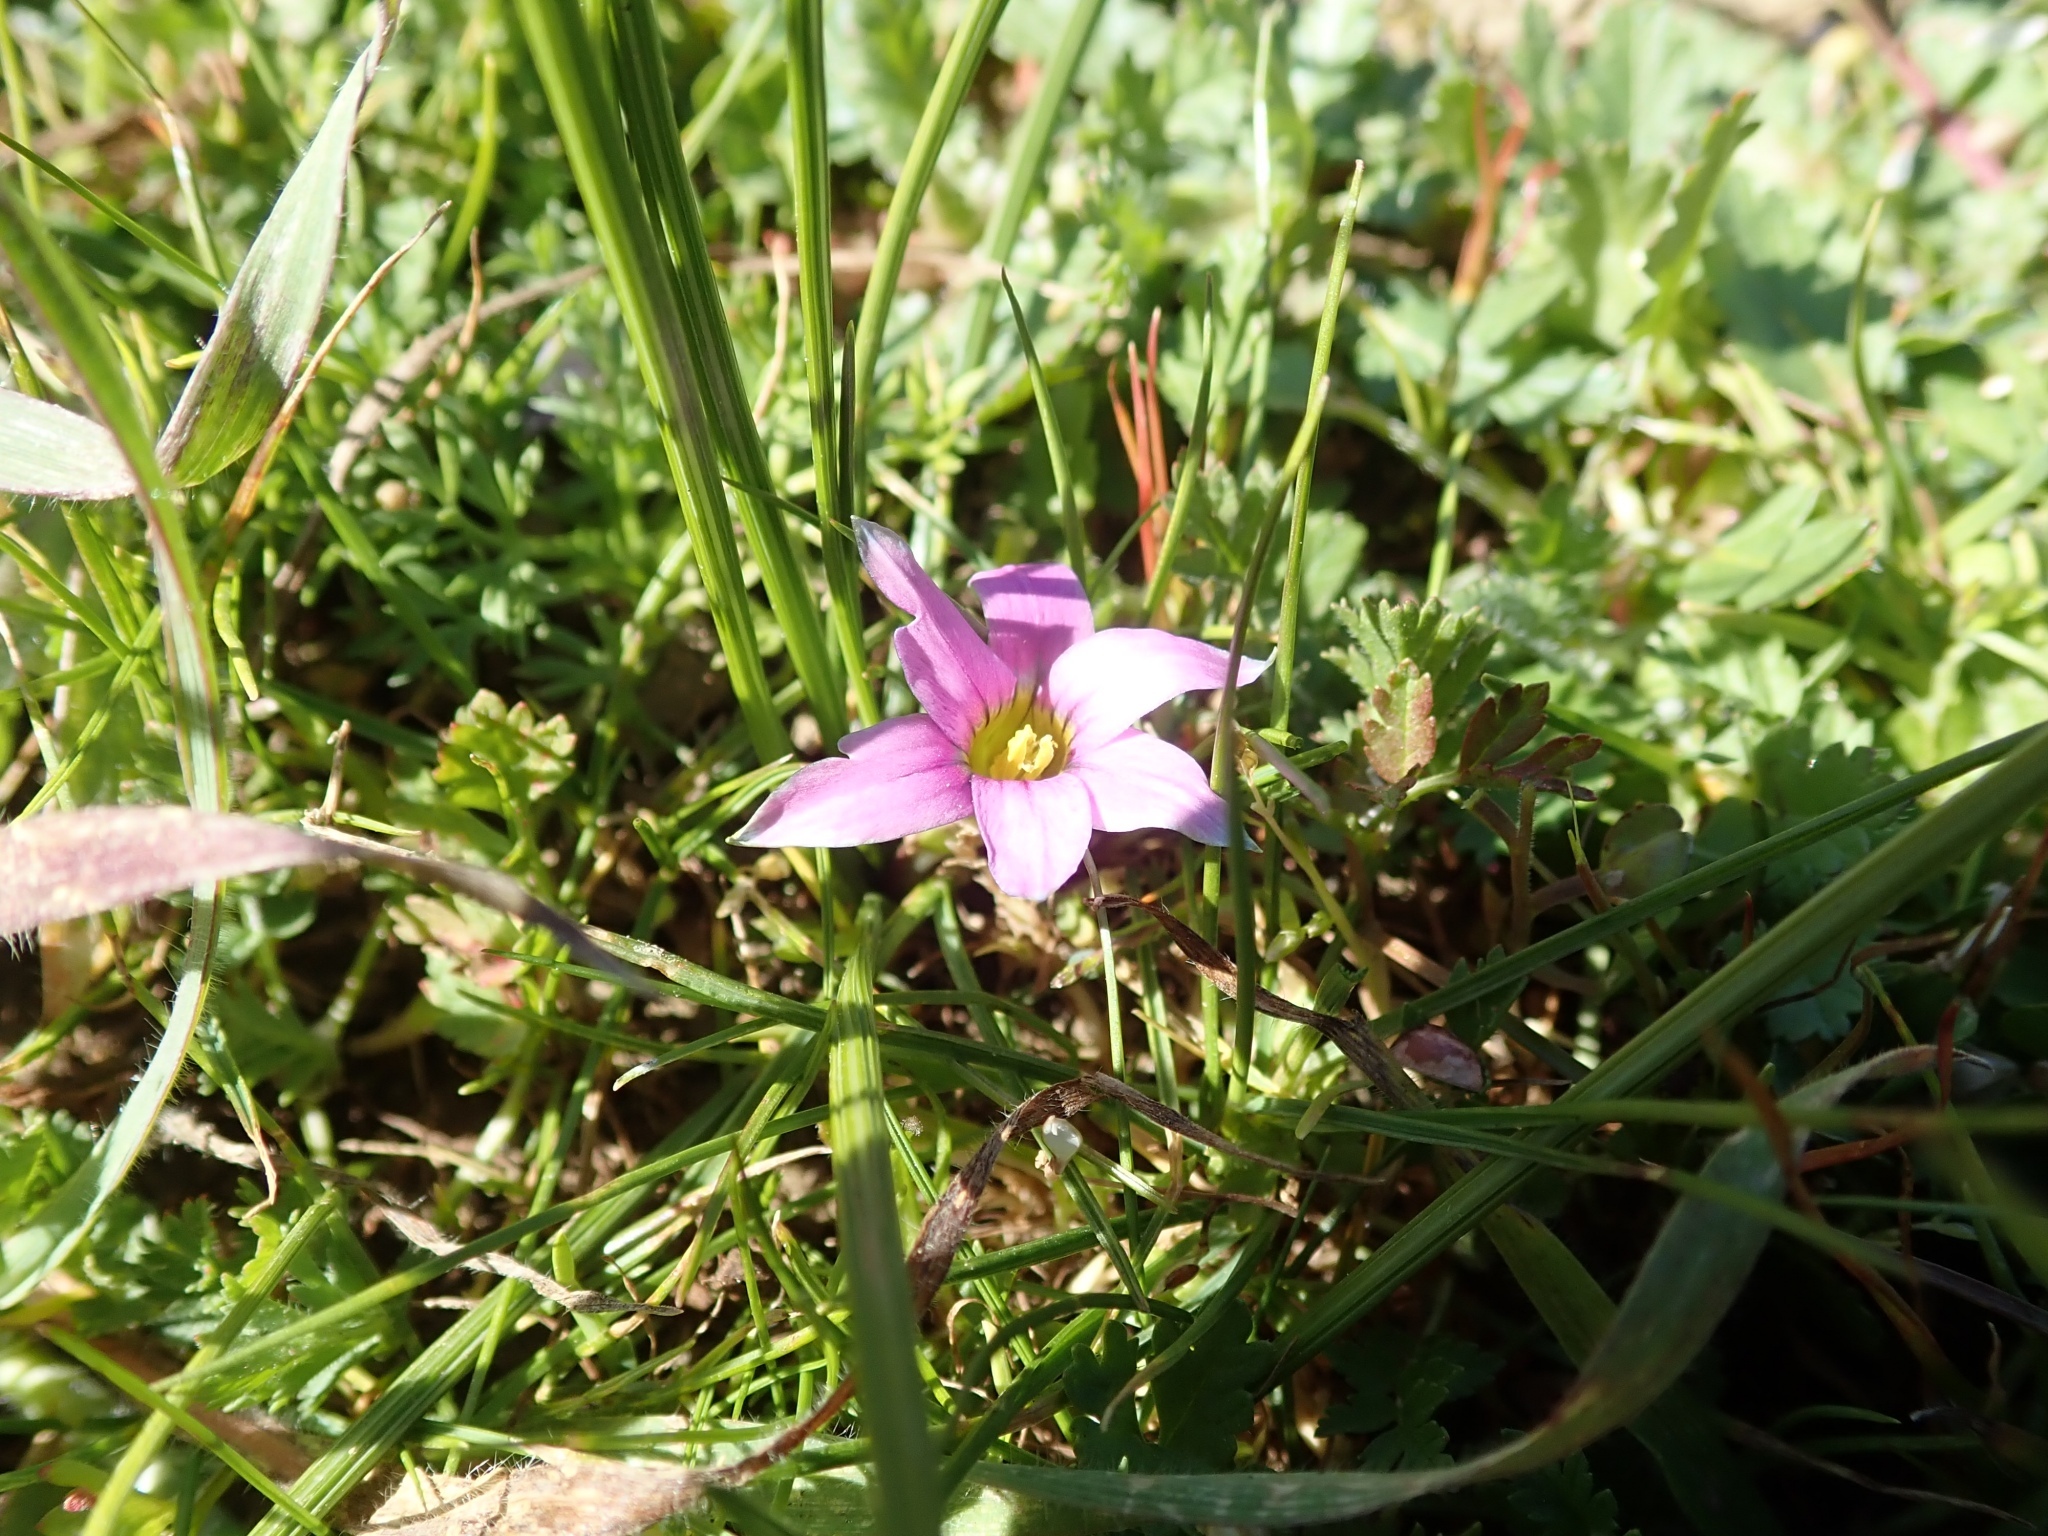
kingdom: Plantae
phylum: Tracheophyta
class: Liliopsida
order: Asparagales
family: Iridaceae
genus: Romulea
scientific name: Romulea rosea
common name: Oniongrass
